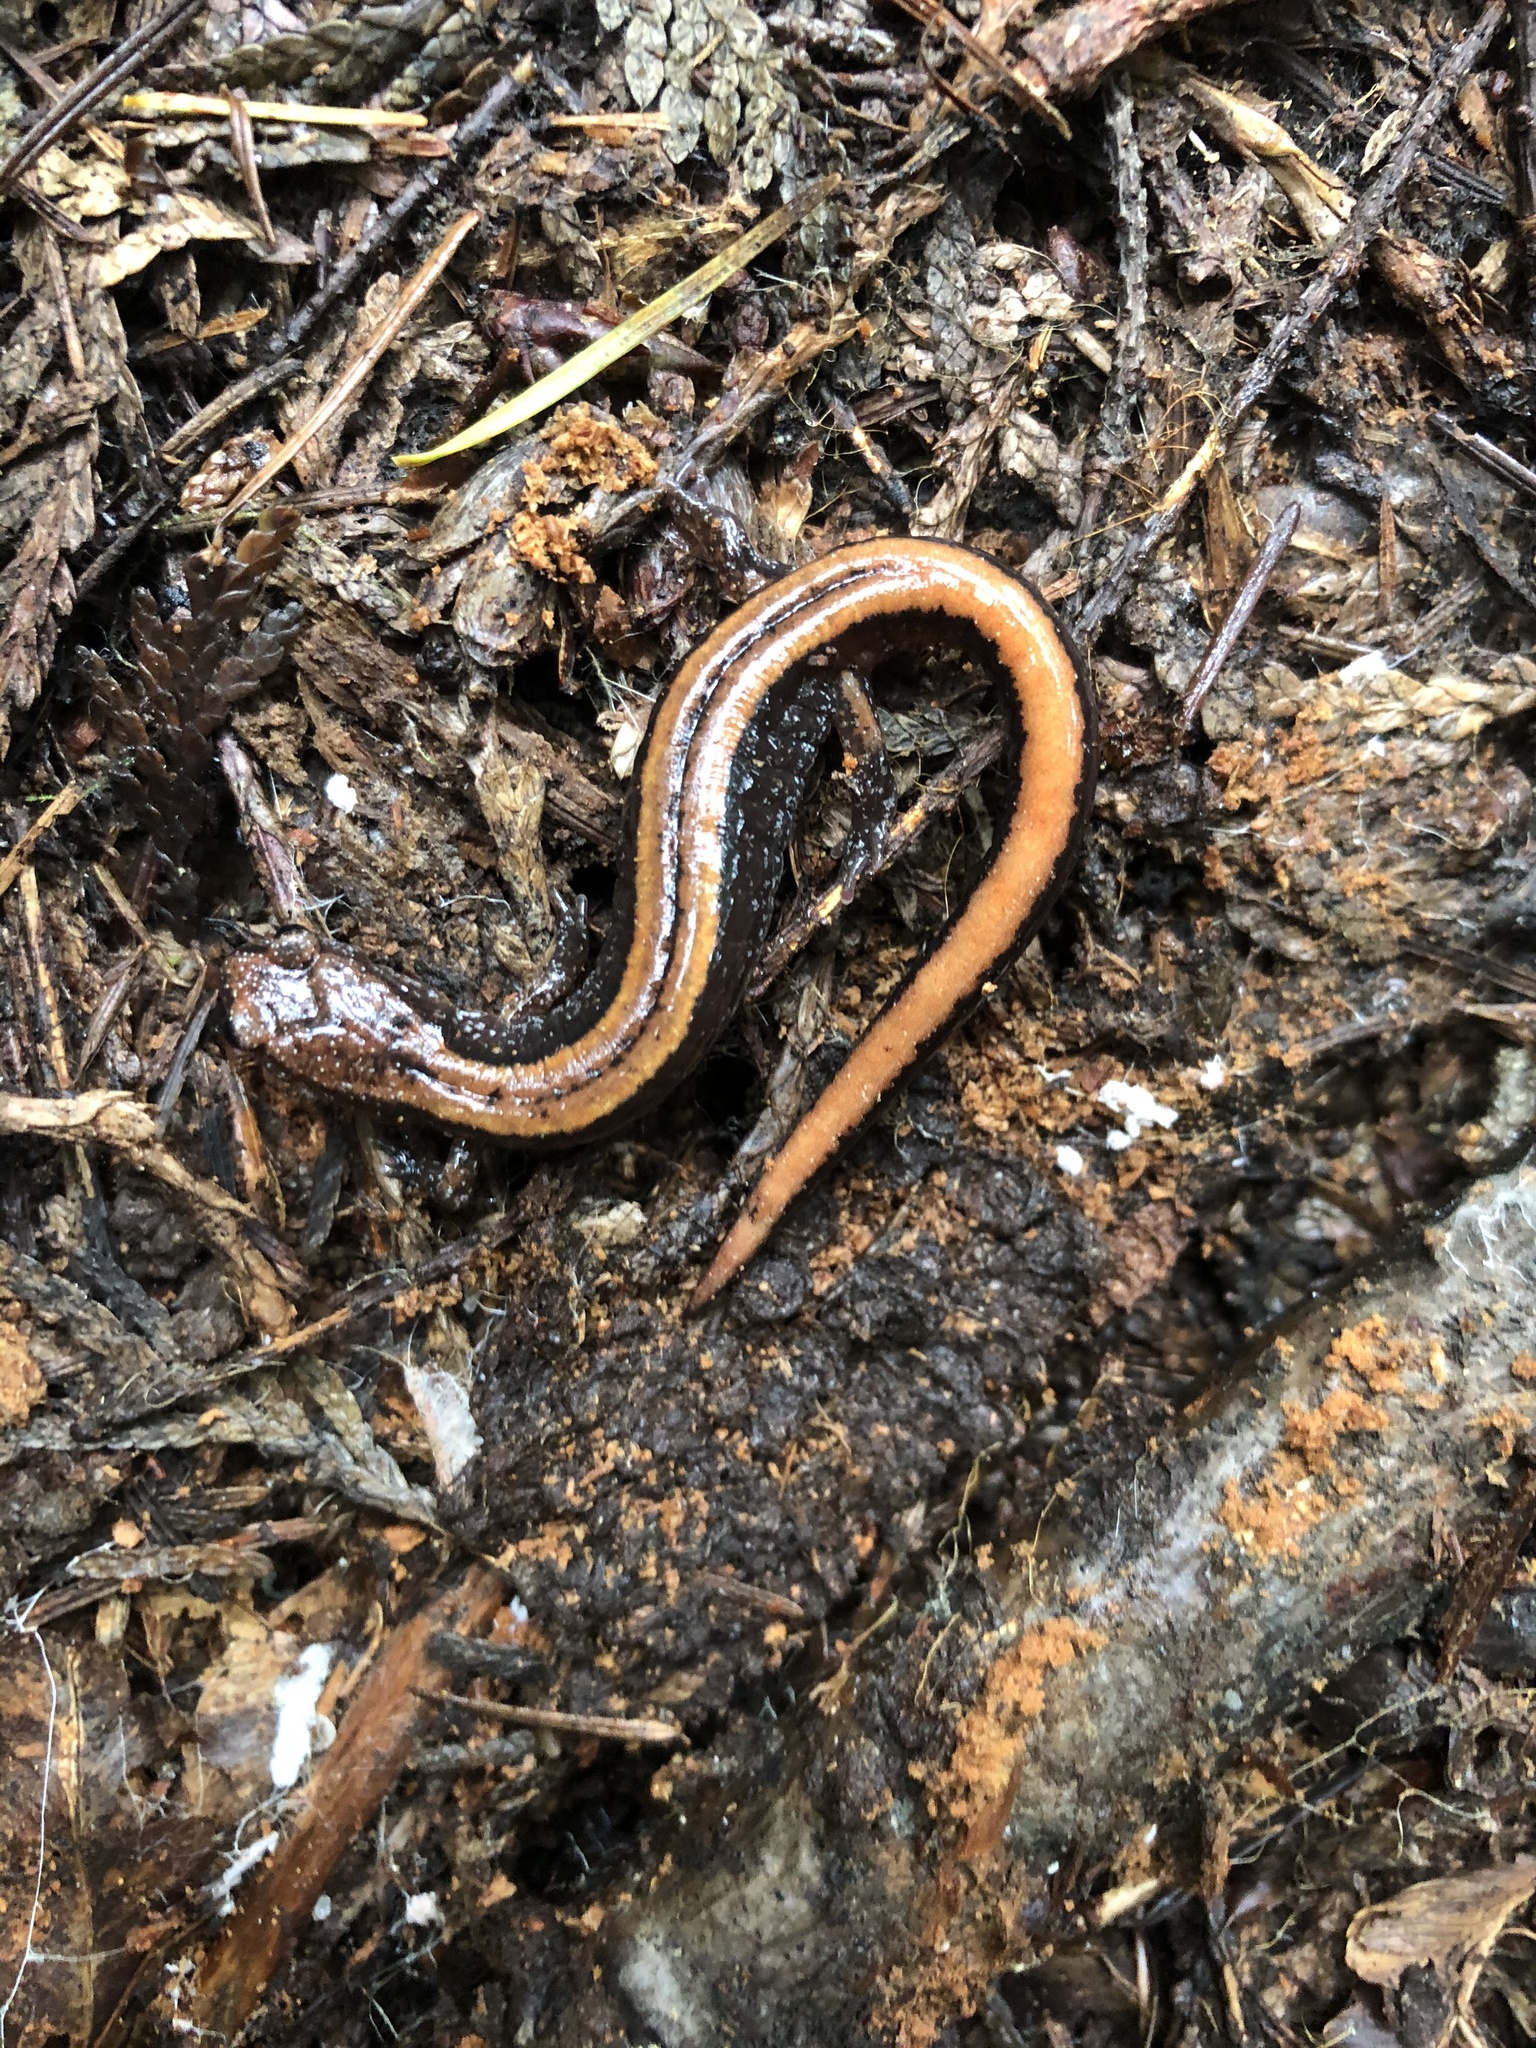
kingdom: Animalia
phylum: Chordata
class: Amphibia
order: Caudata
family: Plethodontidae
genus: Plethodon
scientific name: Plethodon vehiculum
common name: Western red-backed salamander
